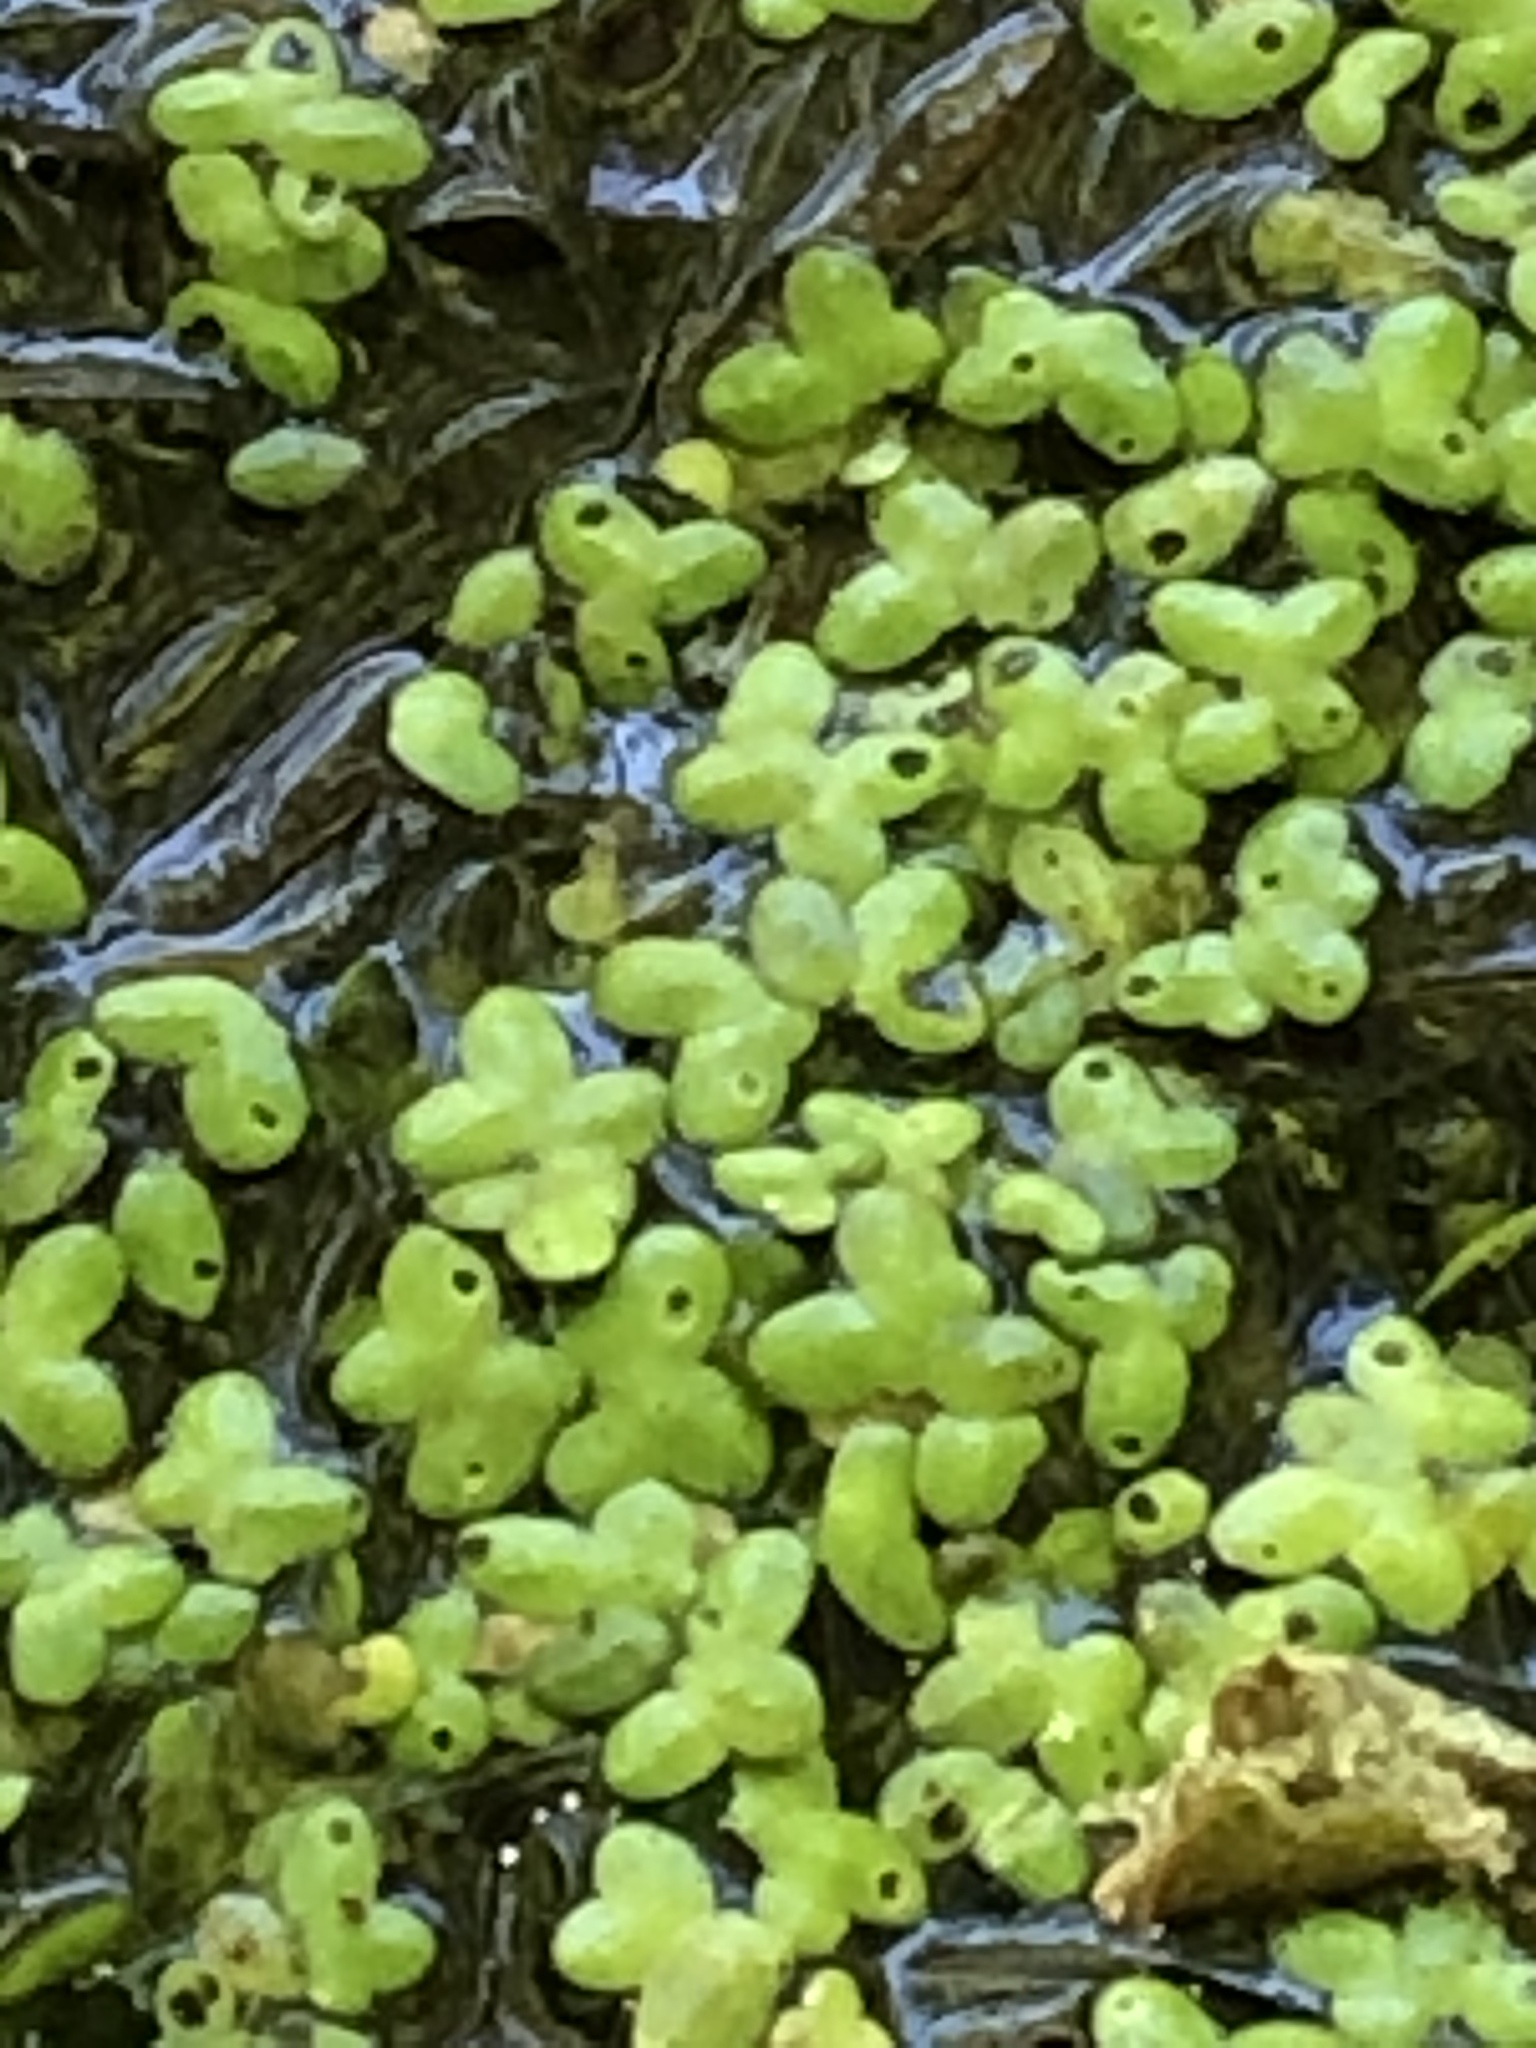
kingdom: Plantae
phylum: Tracheophyta
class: Liliopsida
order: Alismatales
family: Araceae
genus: Lemna
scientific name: Lemna minor
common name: Common duckweed
